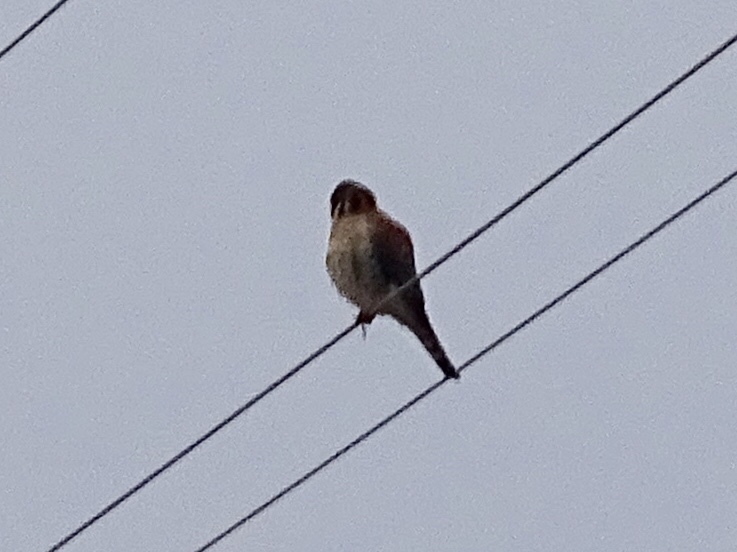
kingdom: Animalia
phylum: Chordata
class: Aves
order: Falconiformes
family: Falconidae
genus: Falco
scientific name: Falco sparverius
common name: American kestrel
